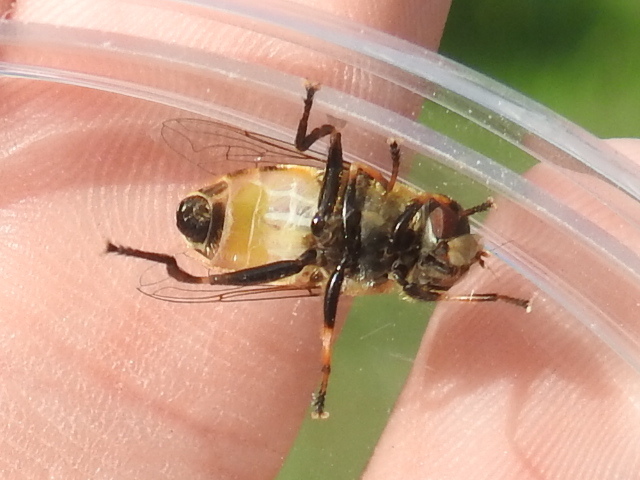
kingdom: Animalia
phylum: Arthropoda
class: Insecta
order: Diptera
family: Syrphidae
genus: Palpada
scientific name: Palpada pusilla
